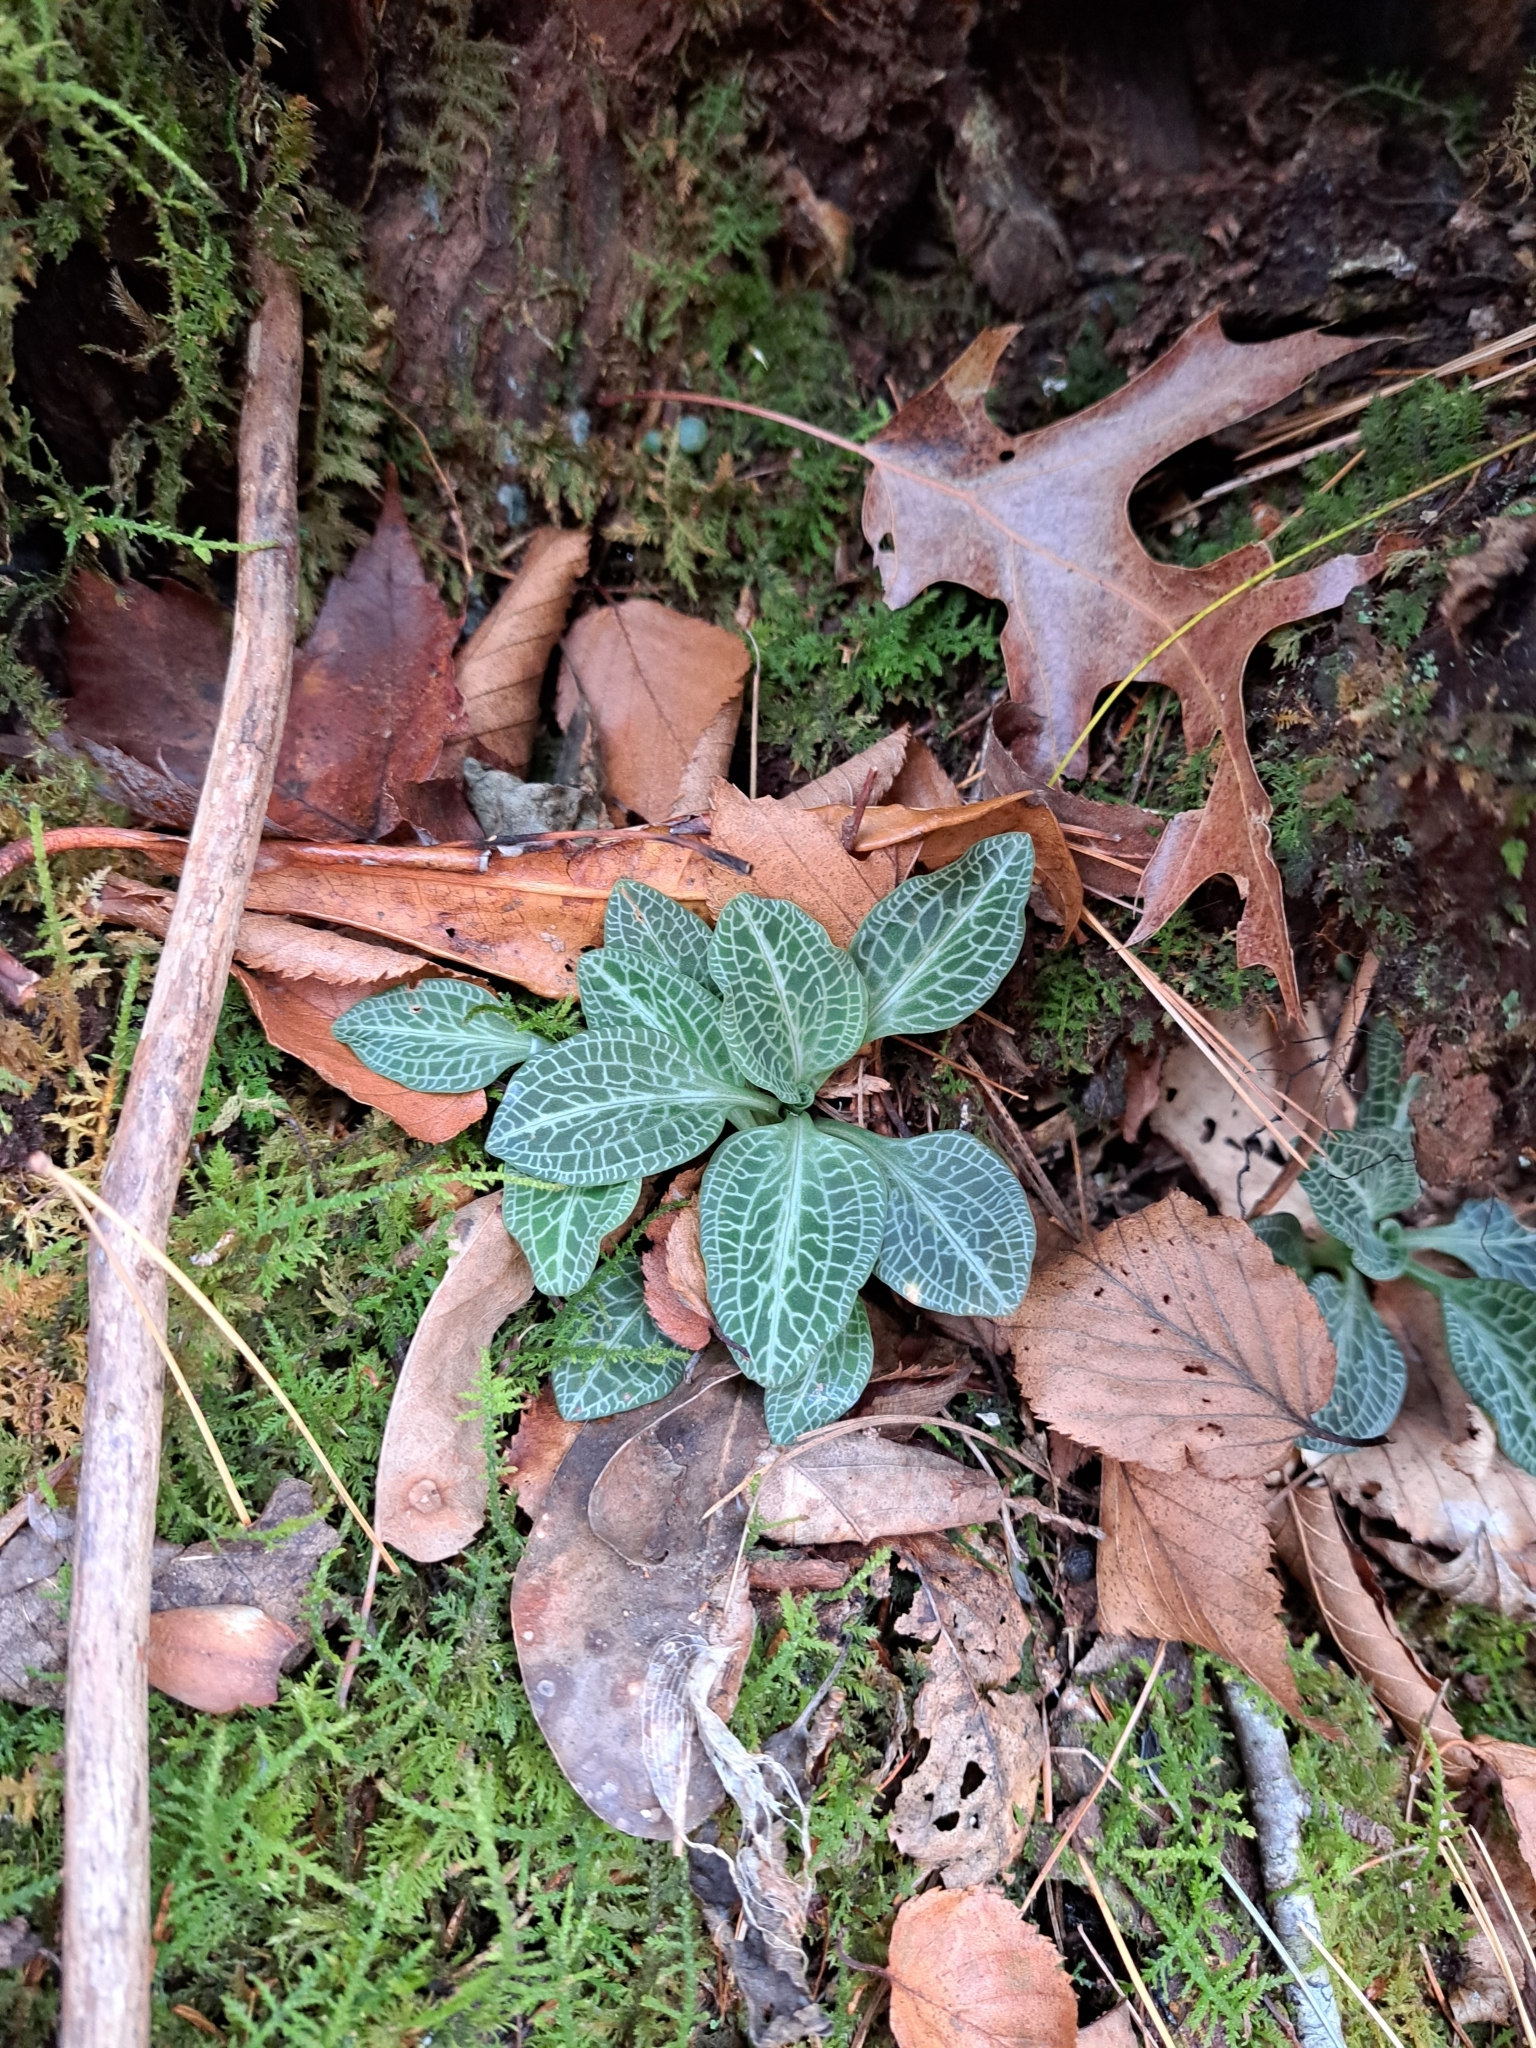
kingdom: Plantae
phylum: Tracheophyta
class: Liliopsida
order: Asparagales
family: Orchidaceae
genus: Goodyera
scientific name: Goodyera pubescens
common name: Downy rattlesnake-plantain
